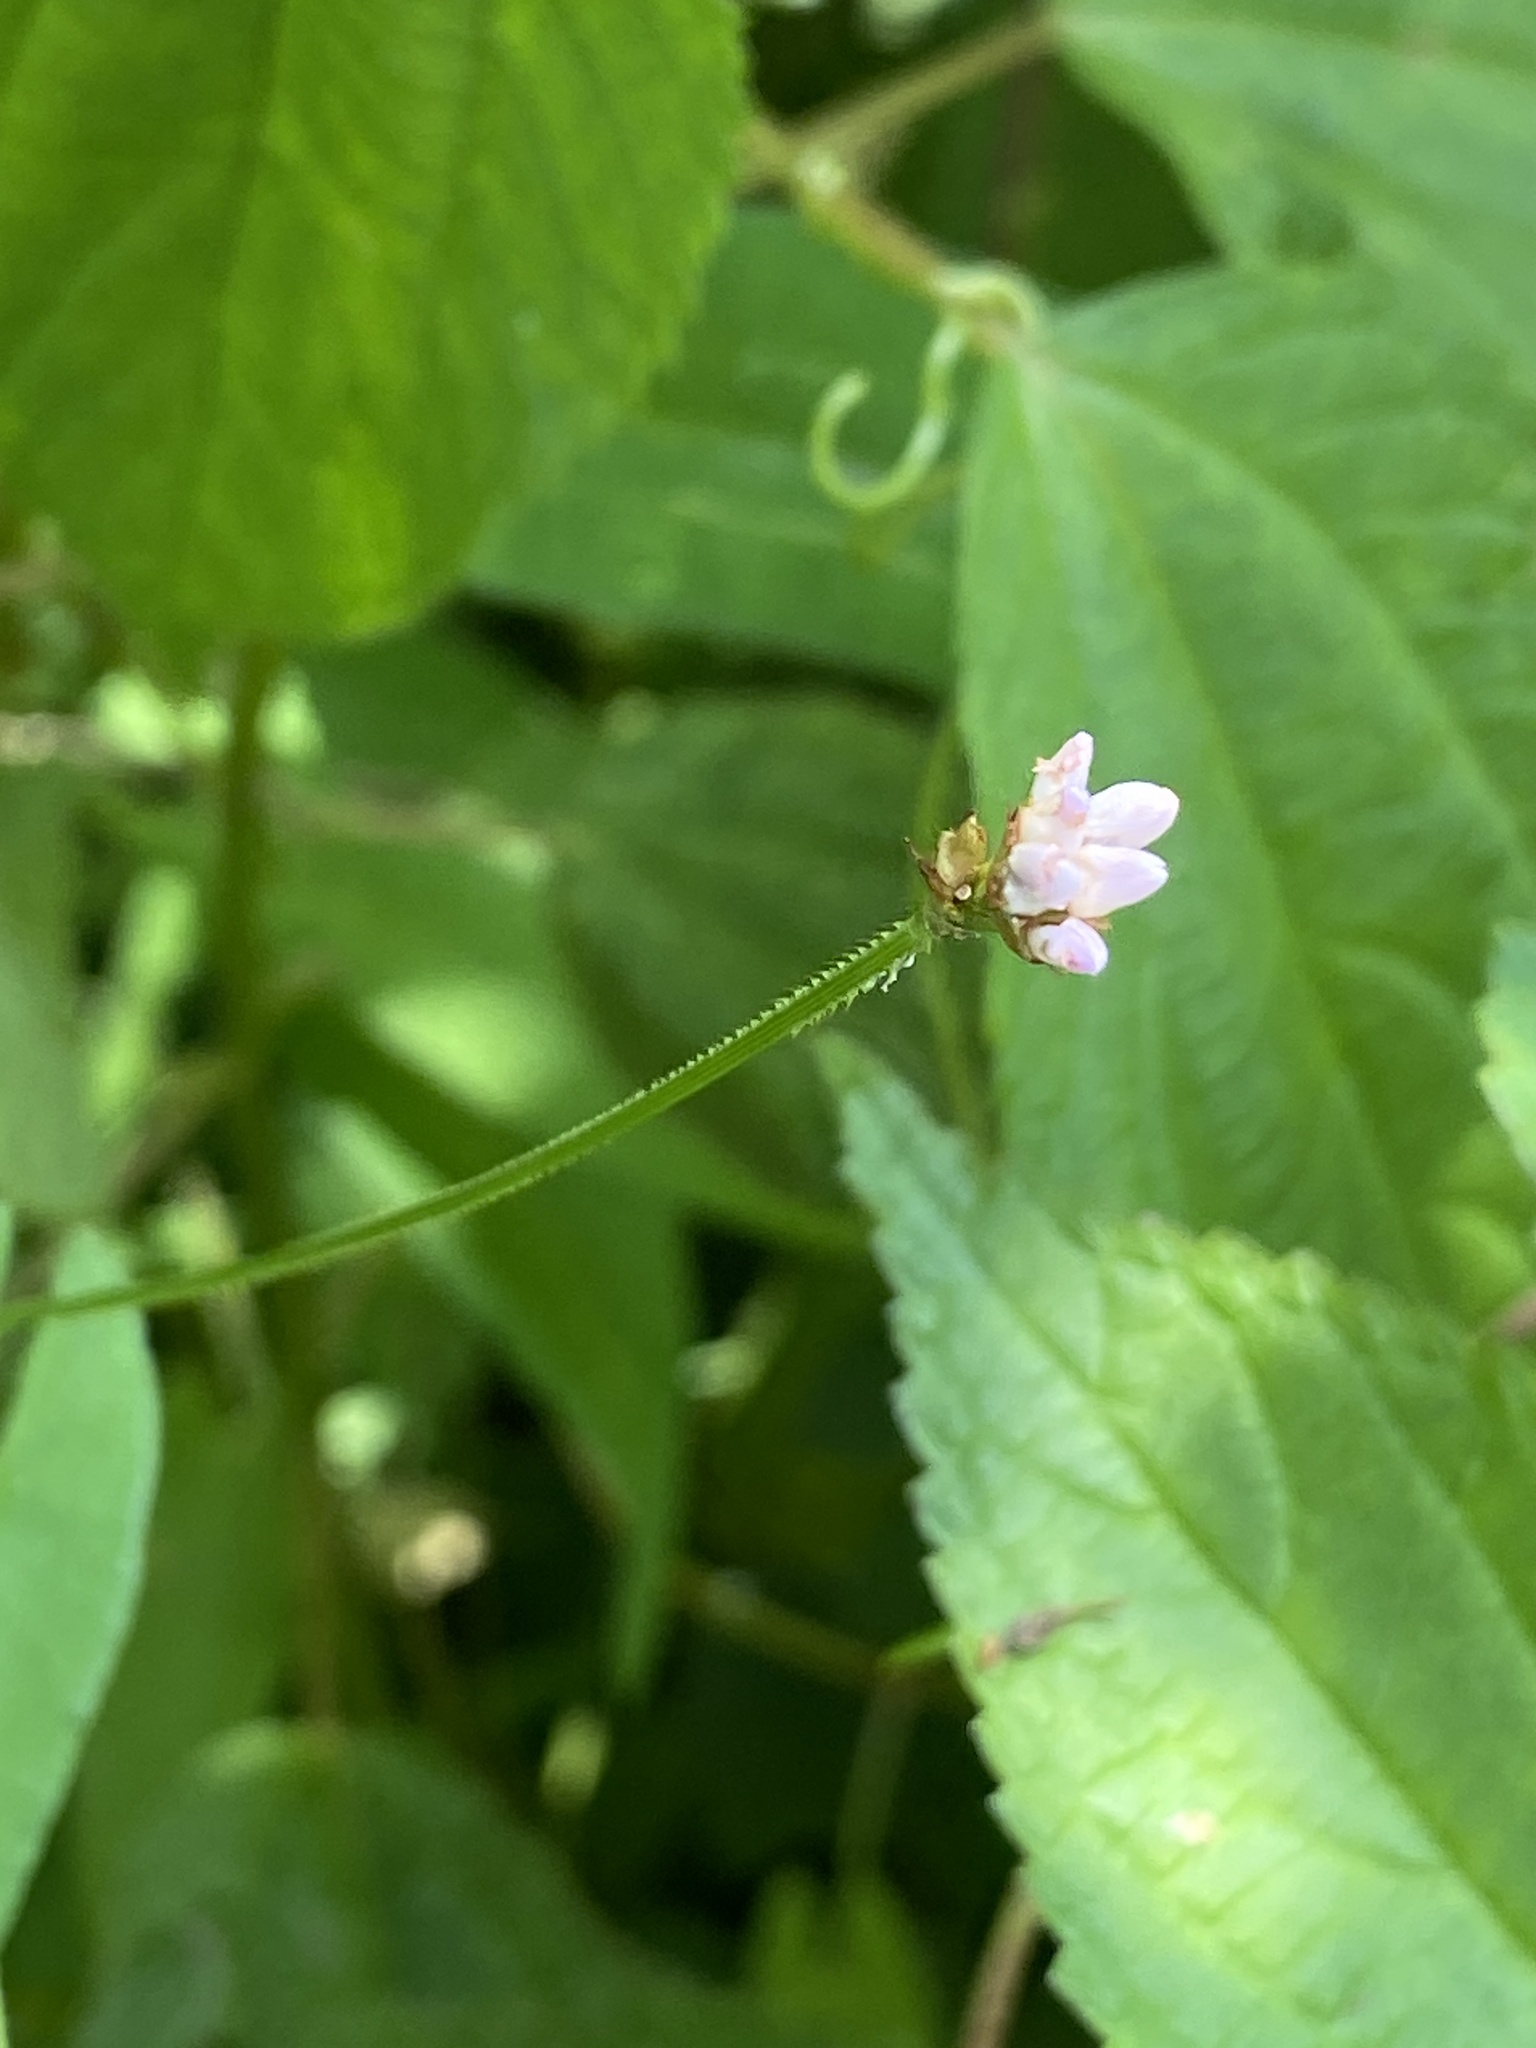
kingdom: Plantae
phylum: Tracheophyta
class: Magnoliopsida
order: Caryophyllales
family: Polygonaceae
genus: Persicaria
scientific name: Persicaria sagittata
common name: American tearthumb
